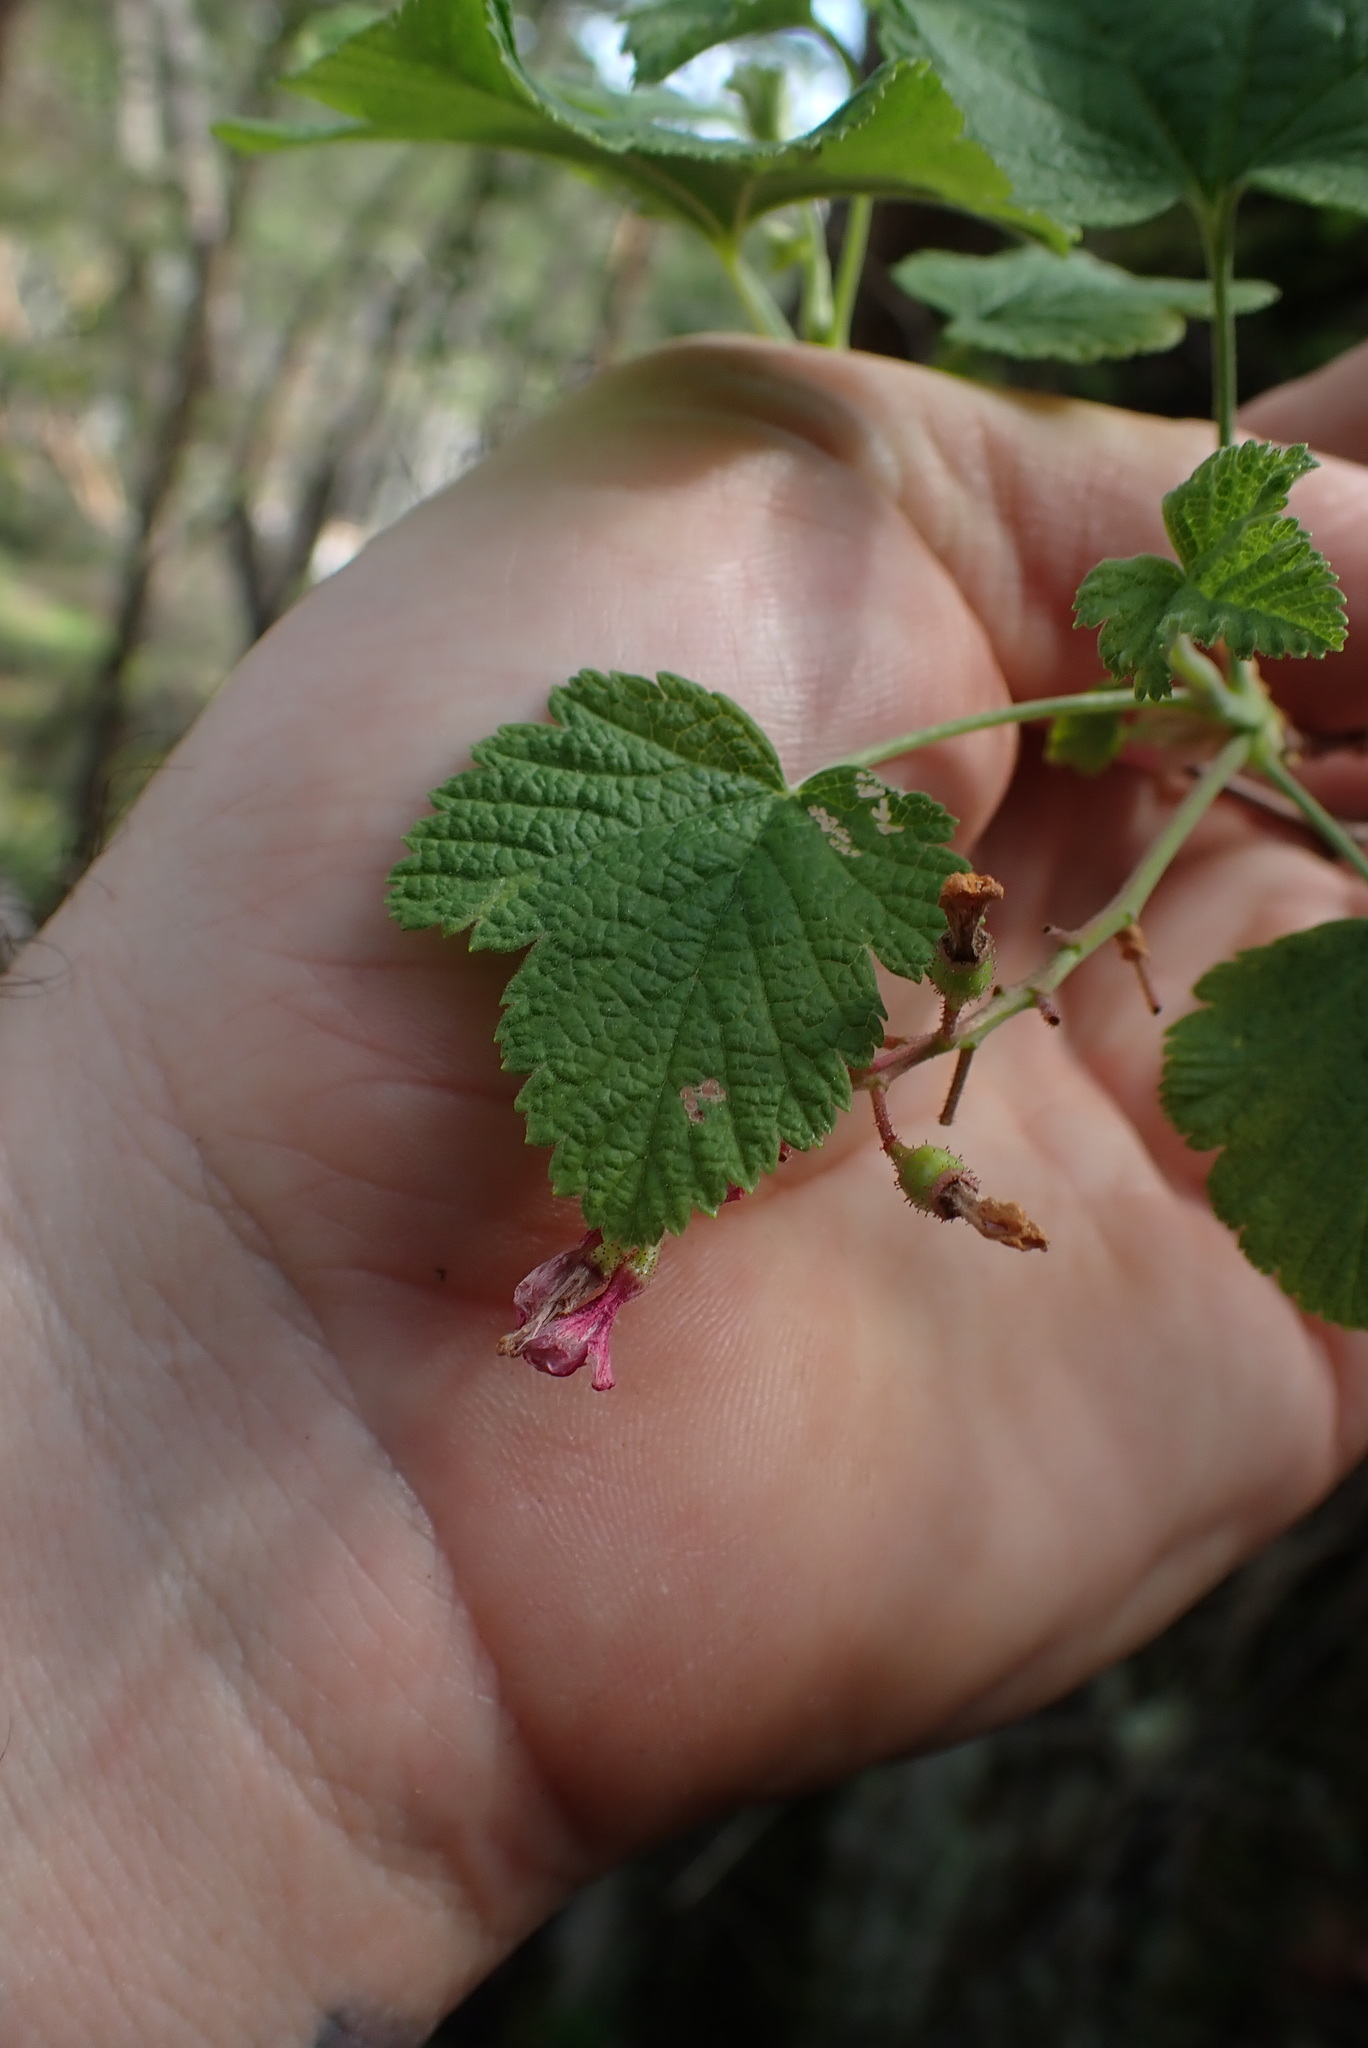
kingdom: Plantae
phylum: Tracheophyta
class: Magnoliopsida
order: Saxifragales
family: Grossulariaceae
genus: Ribes
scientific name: Ribes sanguineum
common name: Flowering currant
